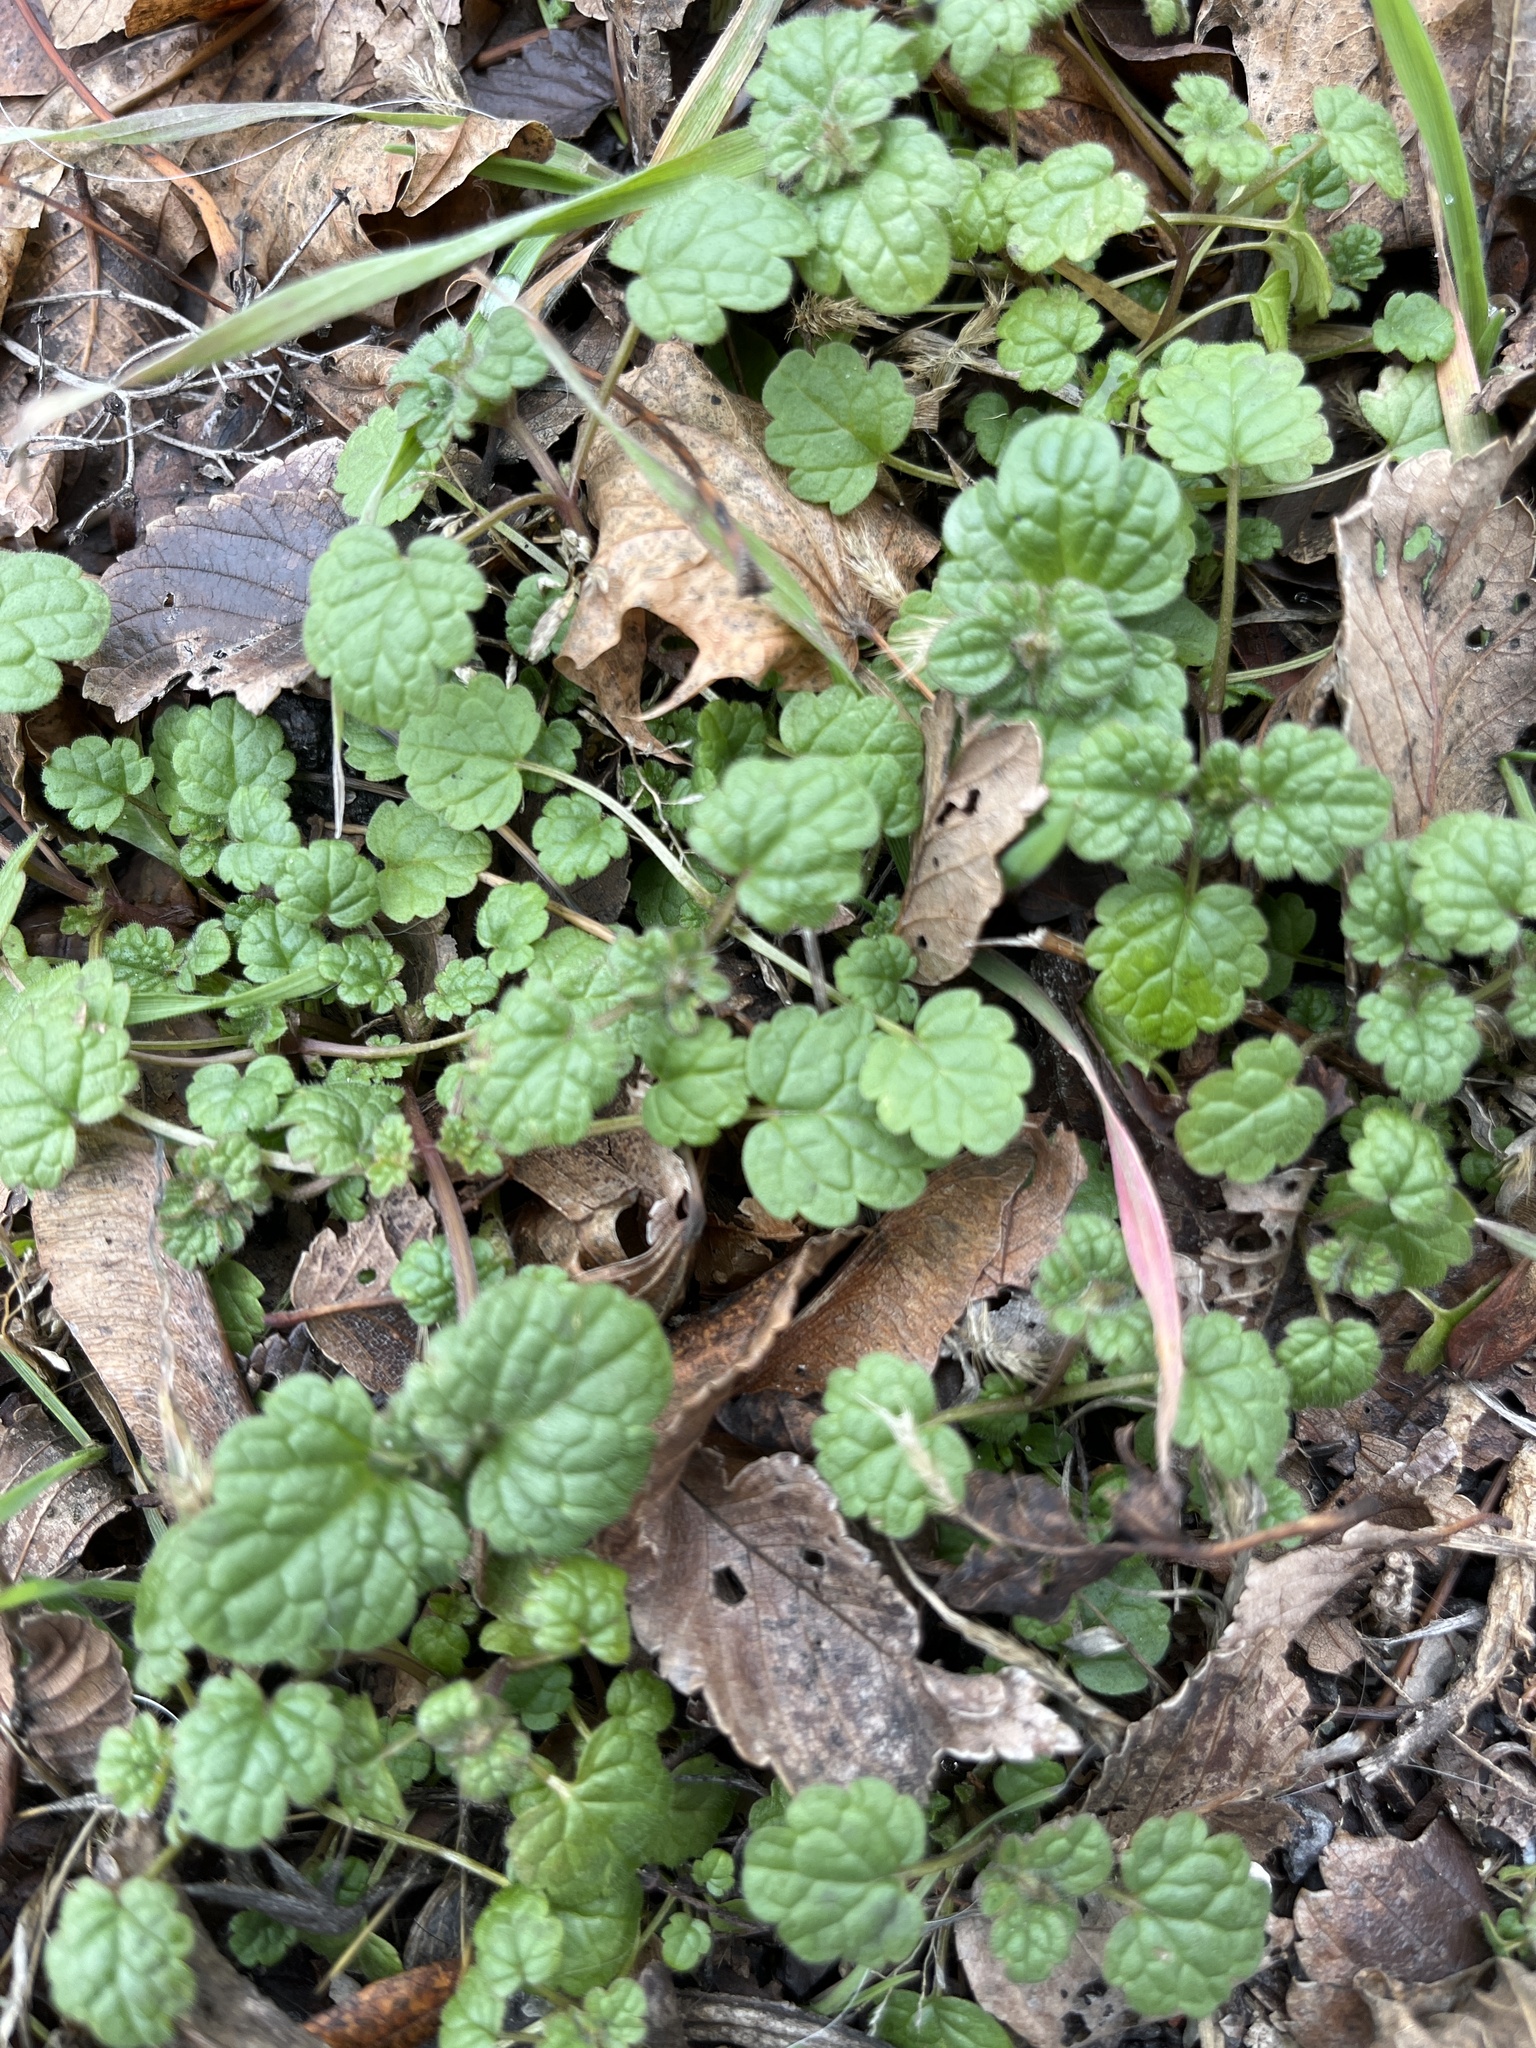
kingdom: Plantae
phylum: Tracheophyta
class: Magnoliopsida
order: Lamiales
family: Lamiaceae
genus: Lamium
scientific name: Lamium amplexicaule
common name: Henbit dead-nettle
